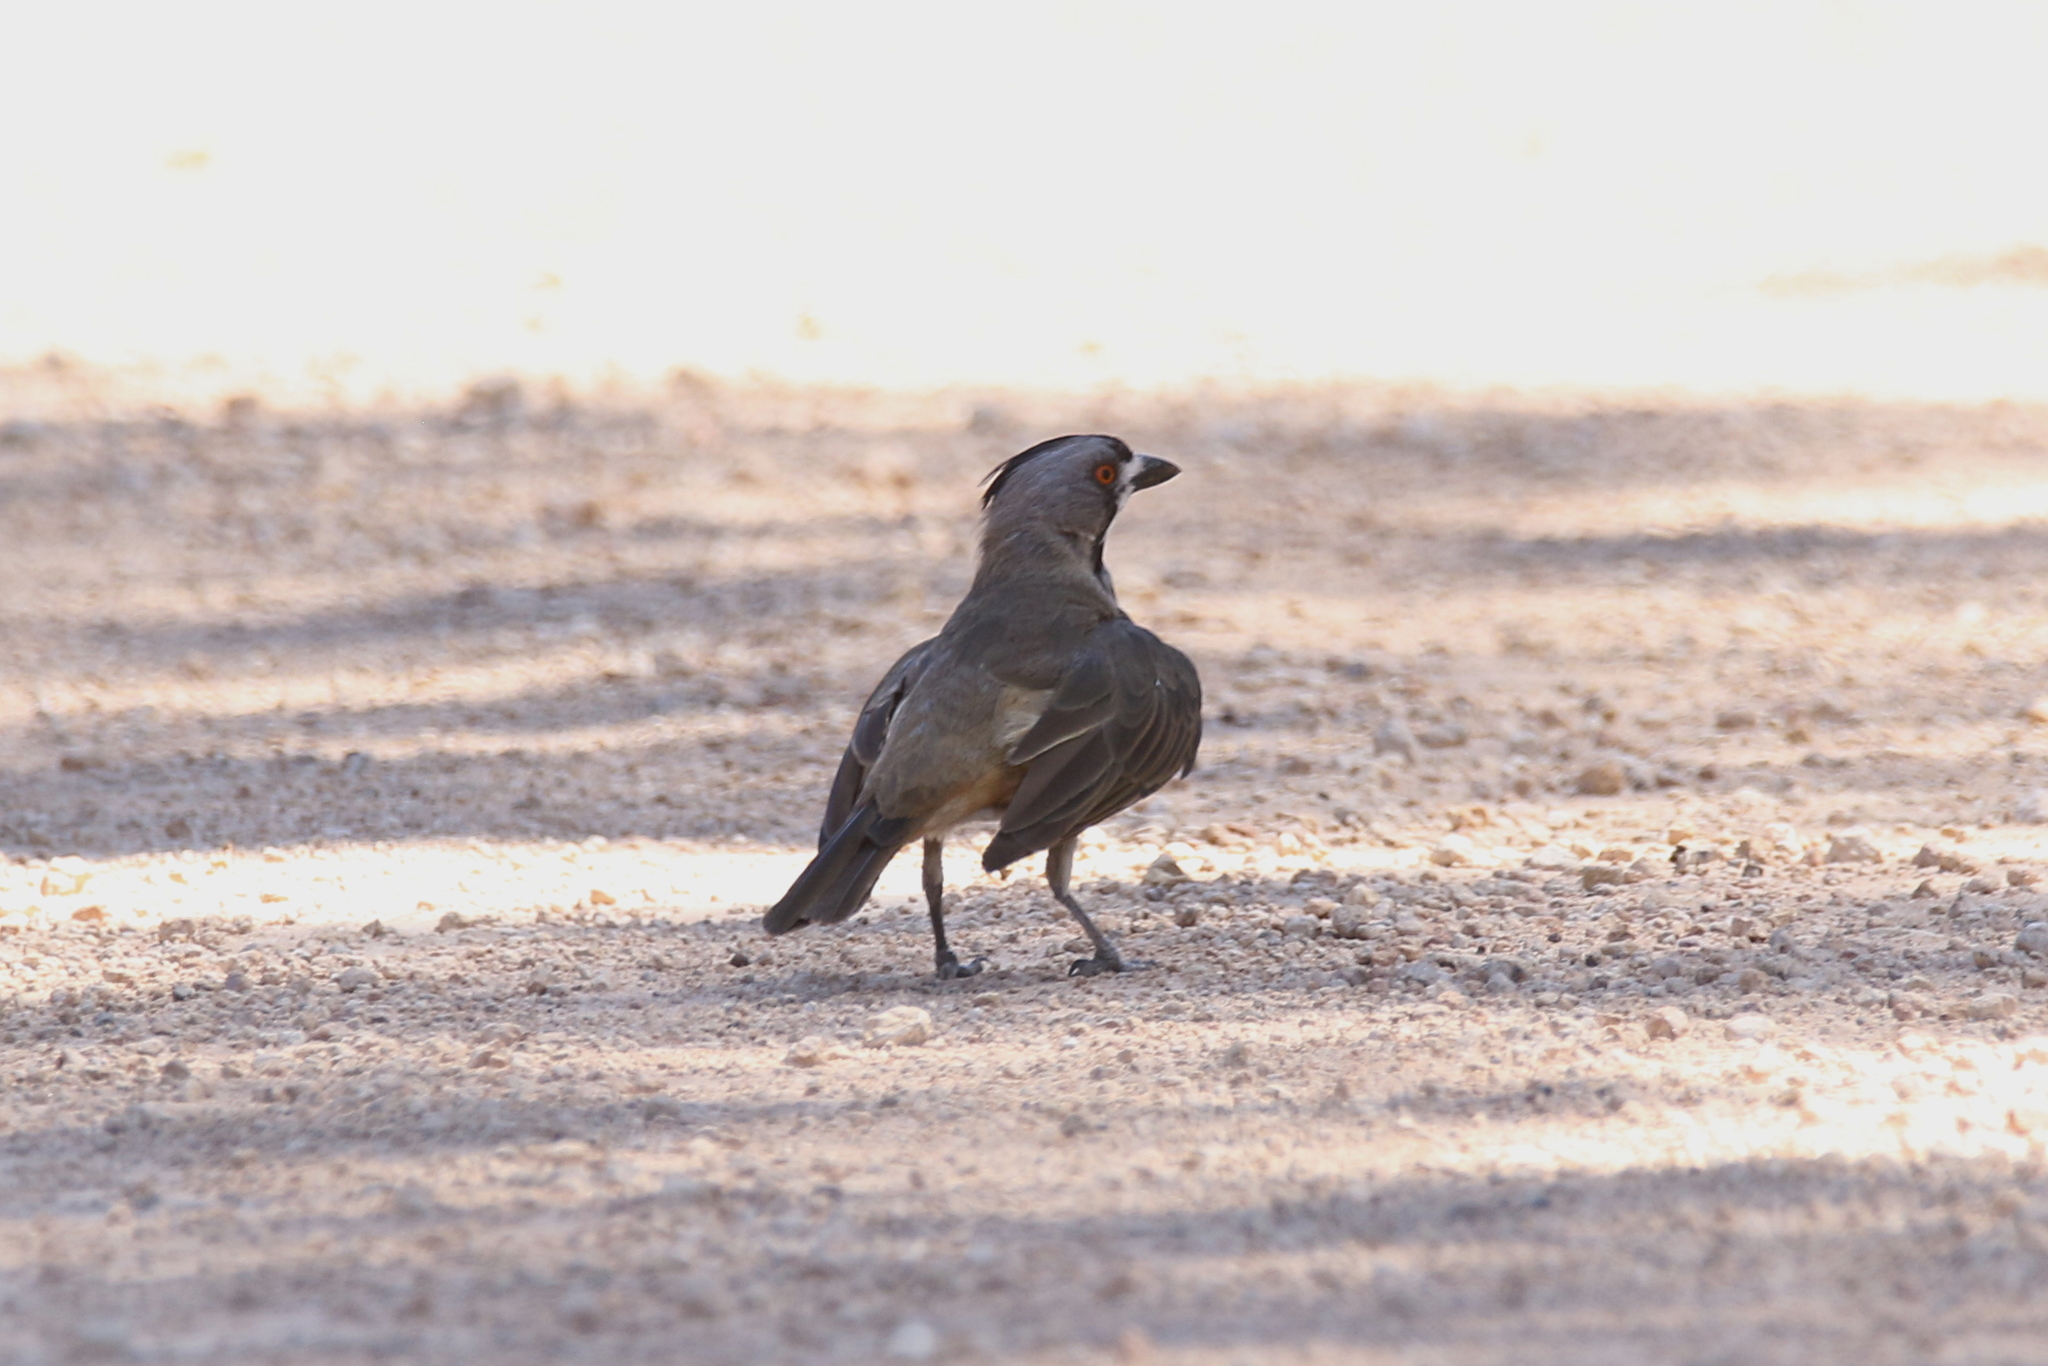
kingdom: Animalia
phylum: Chordata
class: Aves
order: Passeriformes
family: Oreoicidae
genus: Oreoica
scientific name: Oreoica gutturalis
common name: Crested bellbird
